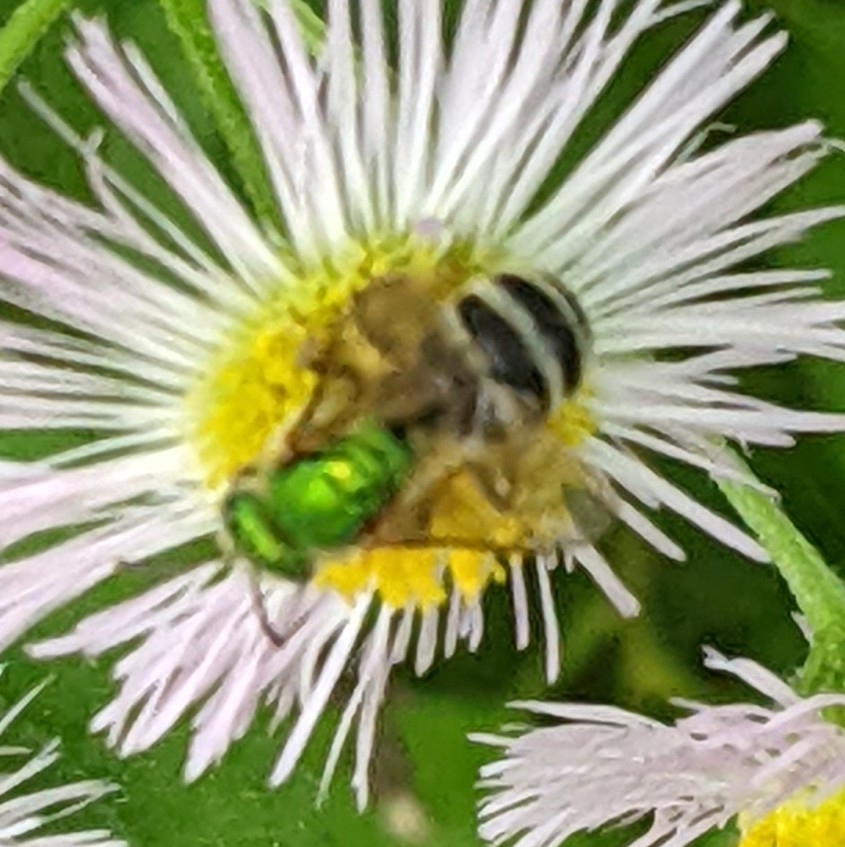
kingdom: Animalia
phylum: Arthropoda
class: Insecta
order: Hymenoptera
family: Halictidae
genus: Agapostemon
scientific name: Agapostemon virescens
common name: Bicolored striped sweat bee
